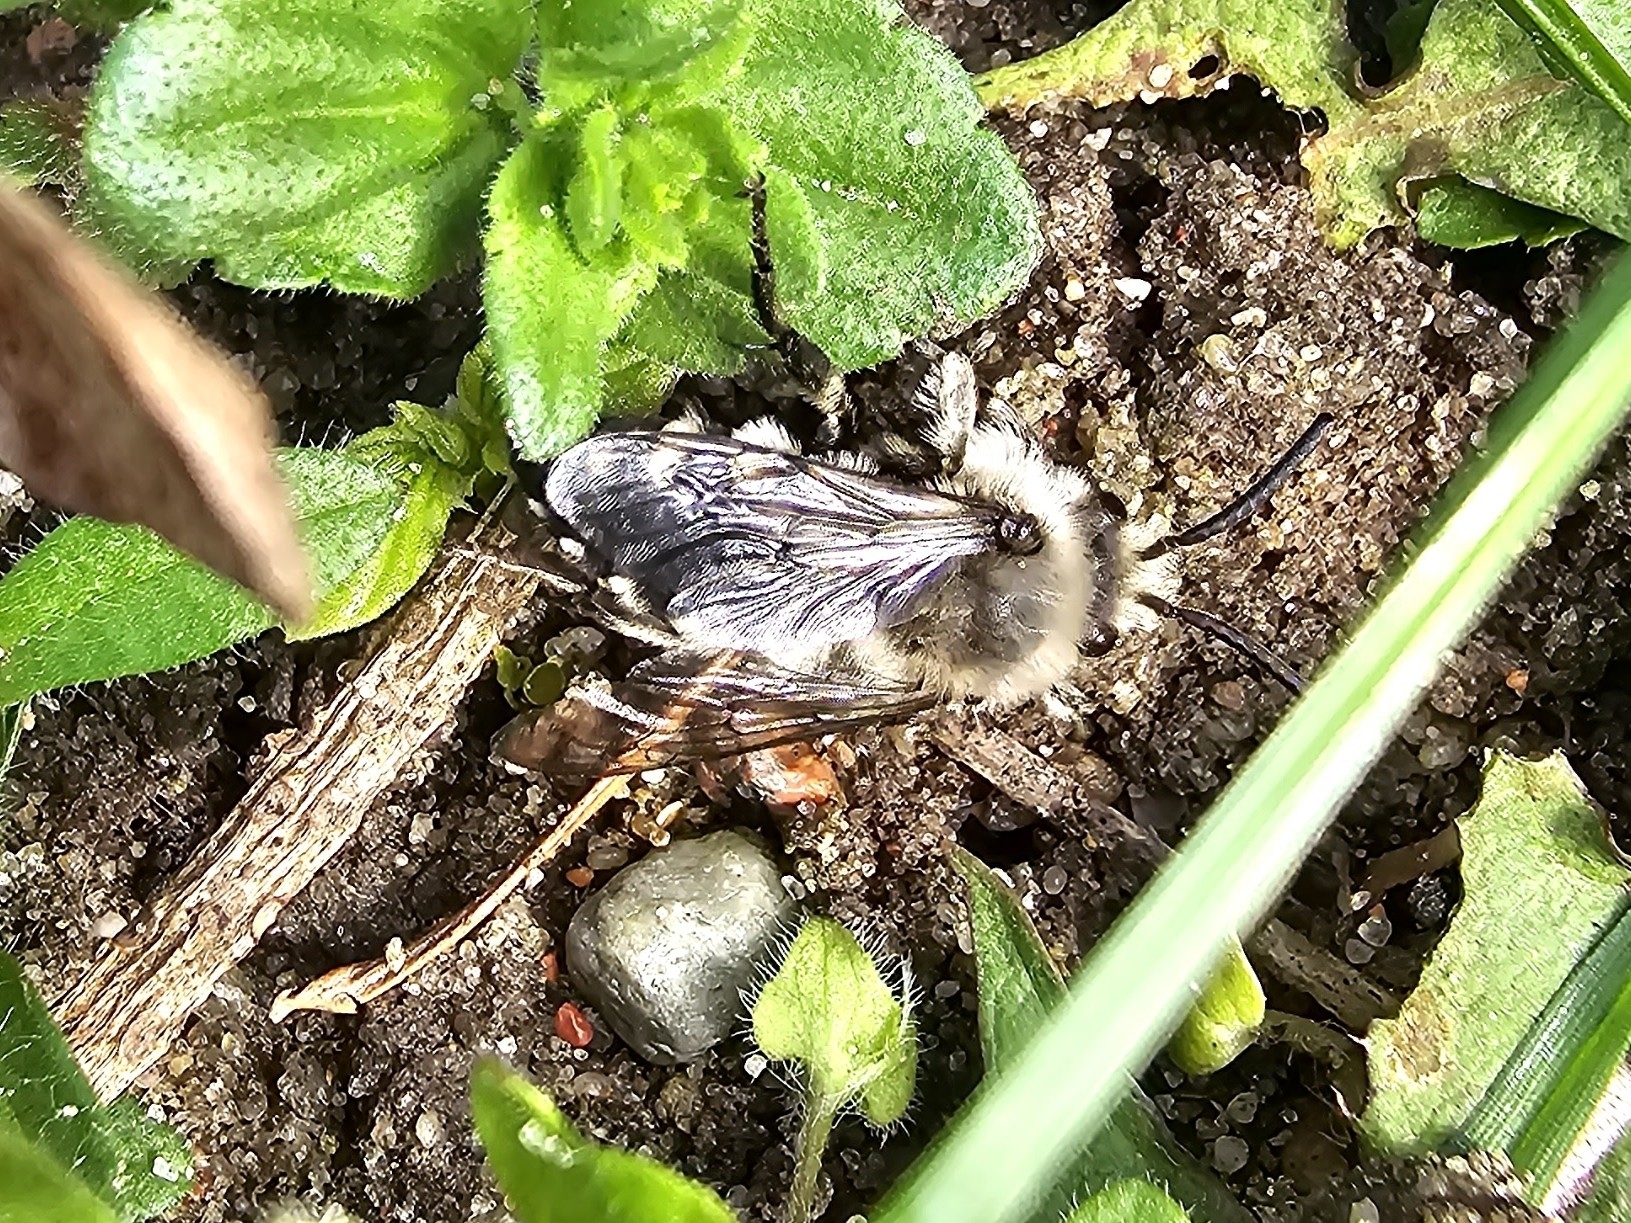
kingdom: Animalia
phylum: Arthropoda
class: Insecta
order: Hymenoptera
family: Apidae
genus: Melecta
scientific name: Melecta albifrons
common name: Common mourning bee
